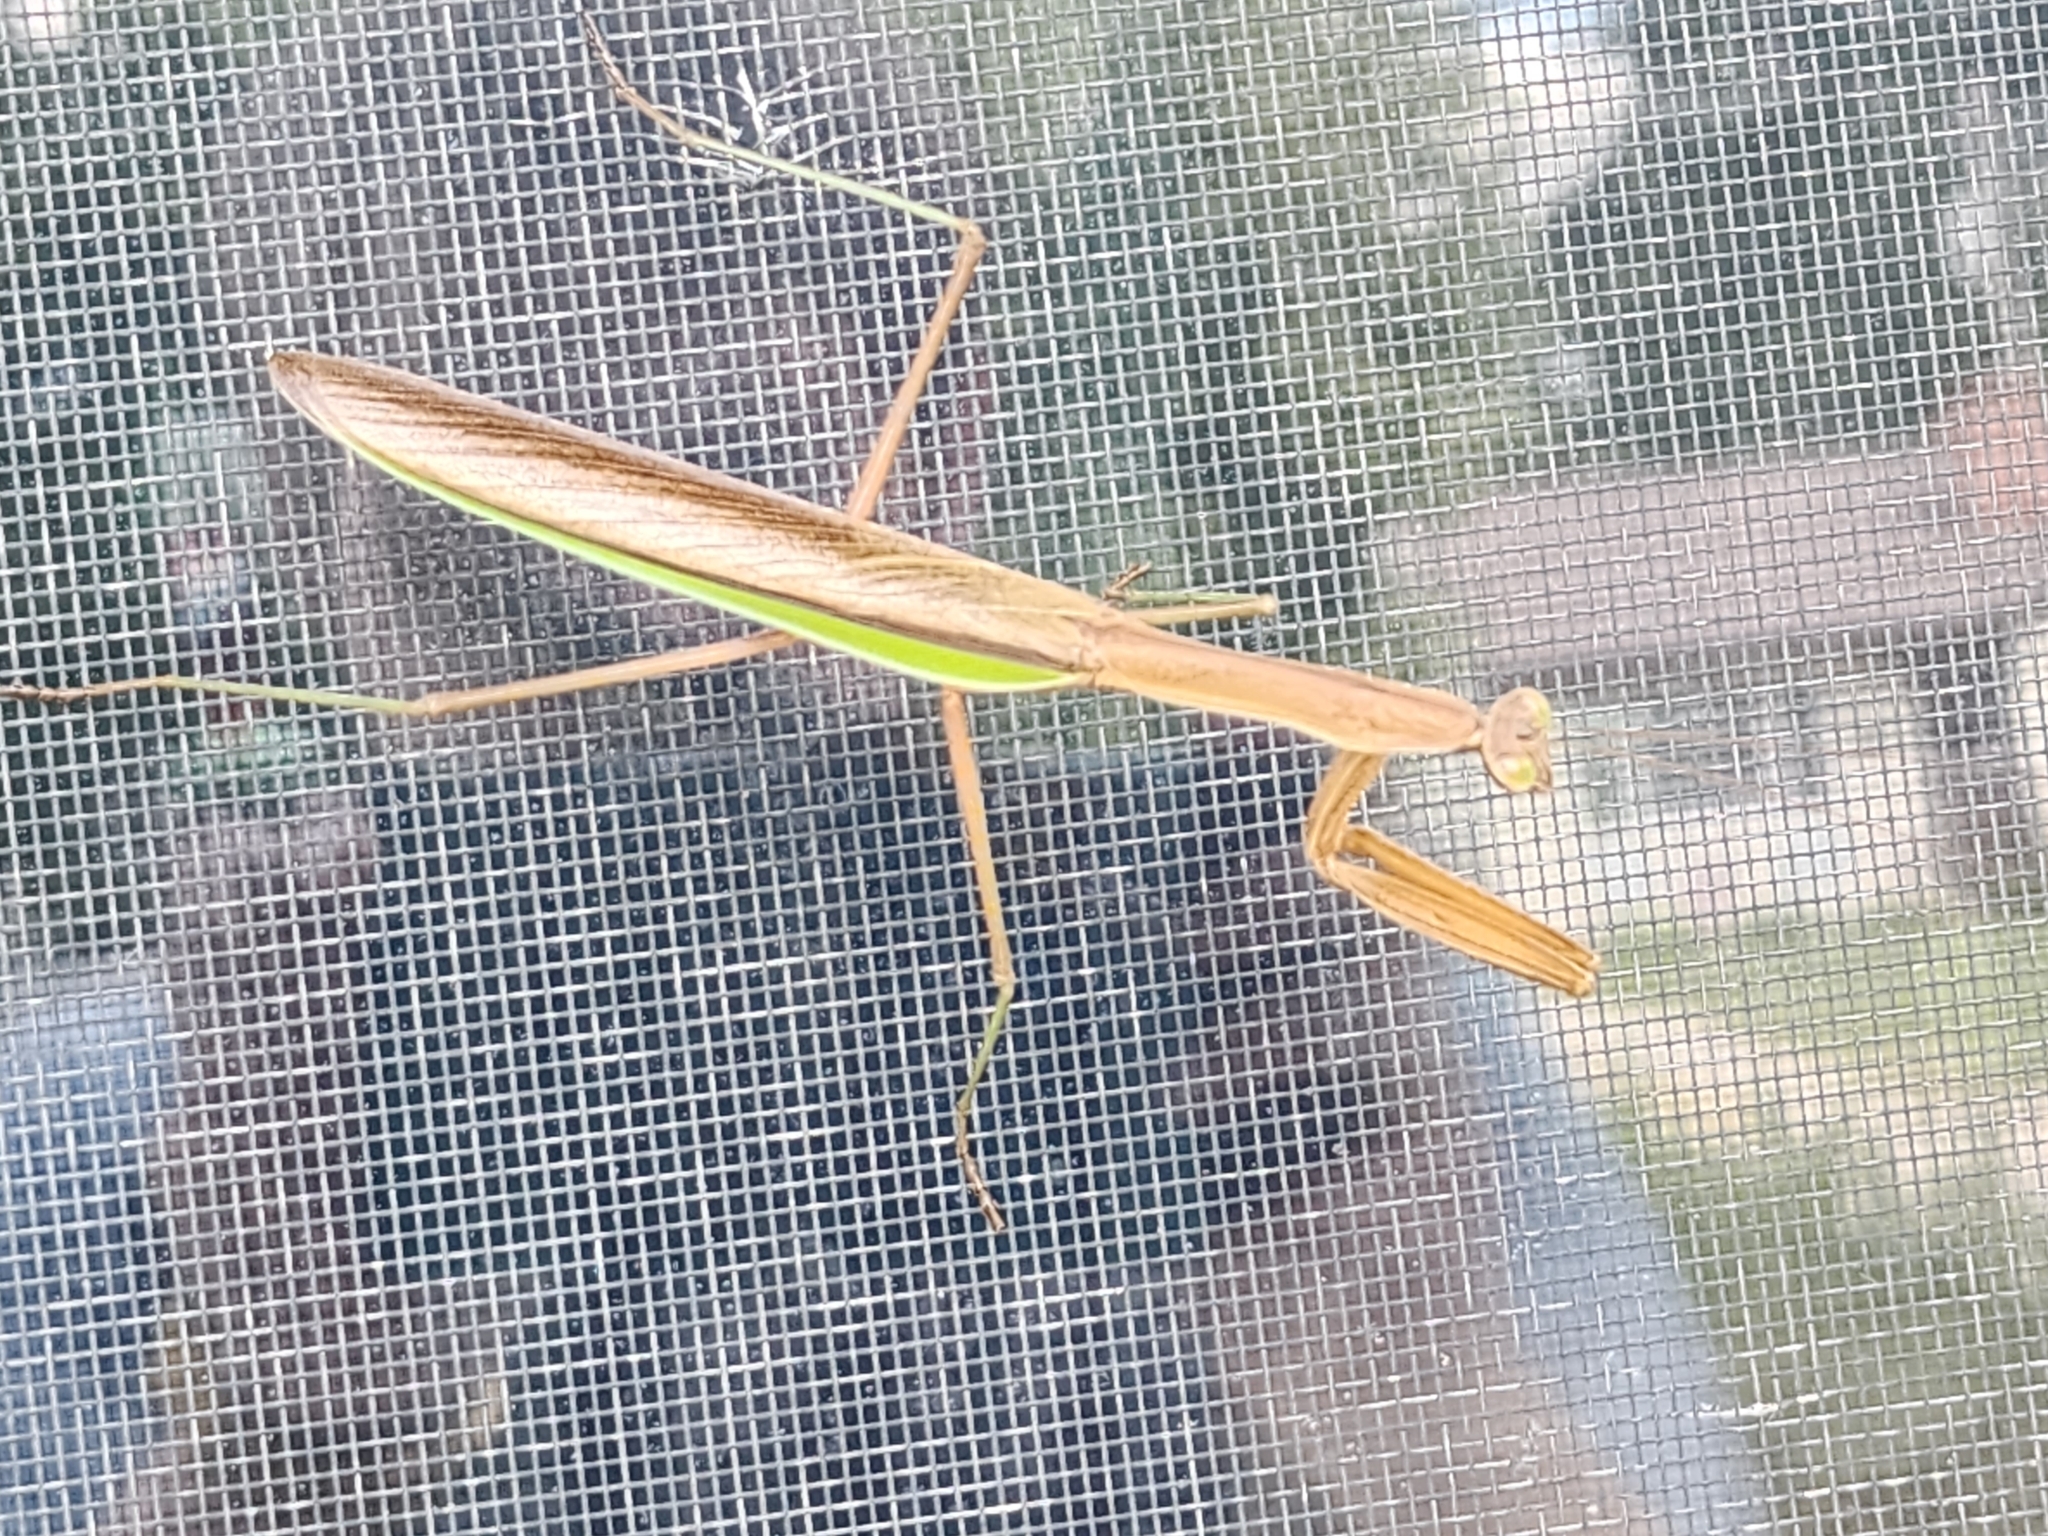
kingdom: Animalia
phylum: Arthropoda
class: Insecta
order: Mantodea
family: Mantidae
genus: Tenodera
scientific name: Tenodera sinensis
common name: Chinese mantis
